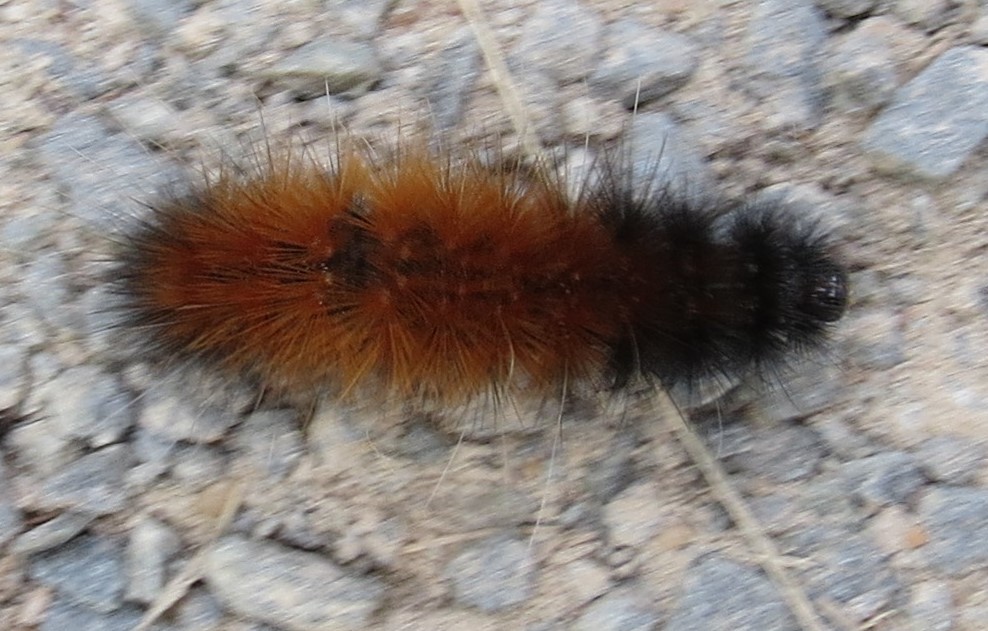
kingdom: Animalia
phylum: Arthropoda
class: Insecta
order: Lepidoptera
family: Erebidae
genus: Pyrrharctia
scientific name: Pyrrharctia isabella
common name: Isabella tiger moth
